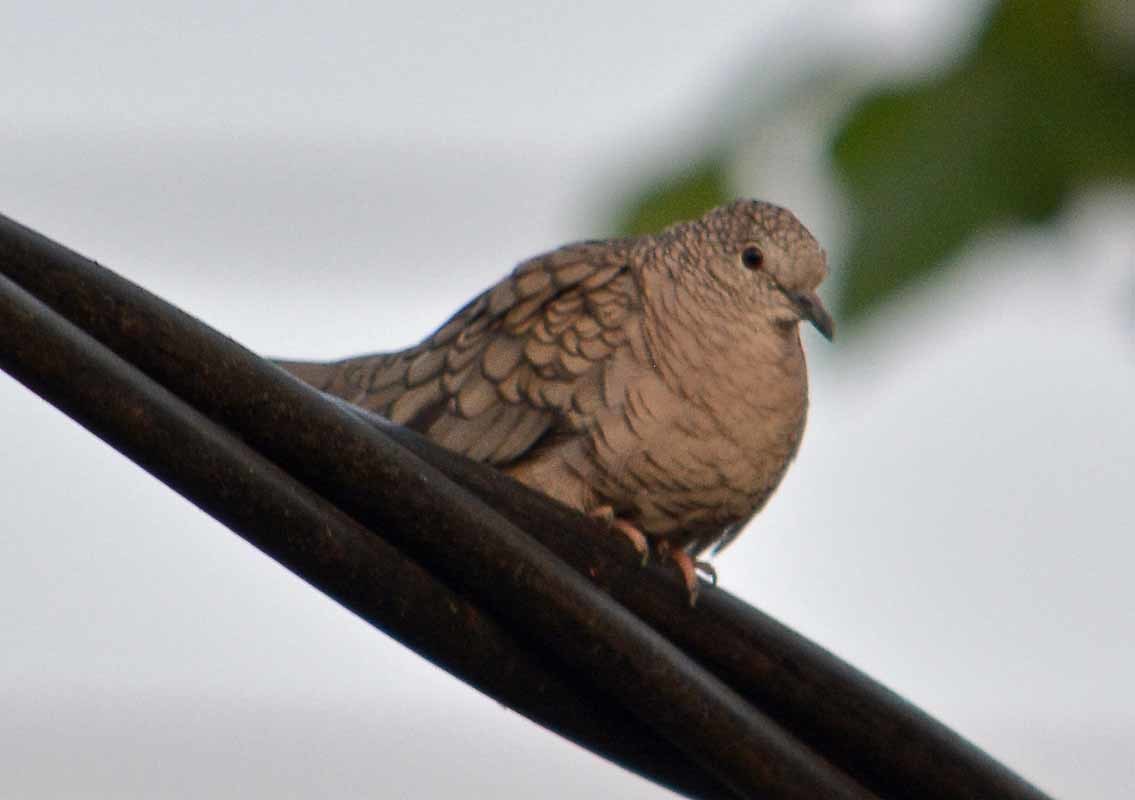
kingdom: Animalia
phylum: Chordata
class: Aves
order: Columbiformes
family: Columbidae
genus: Columbina
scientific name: Columbina inca
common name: Inca dove
